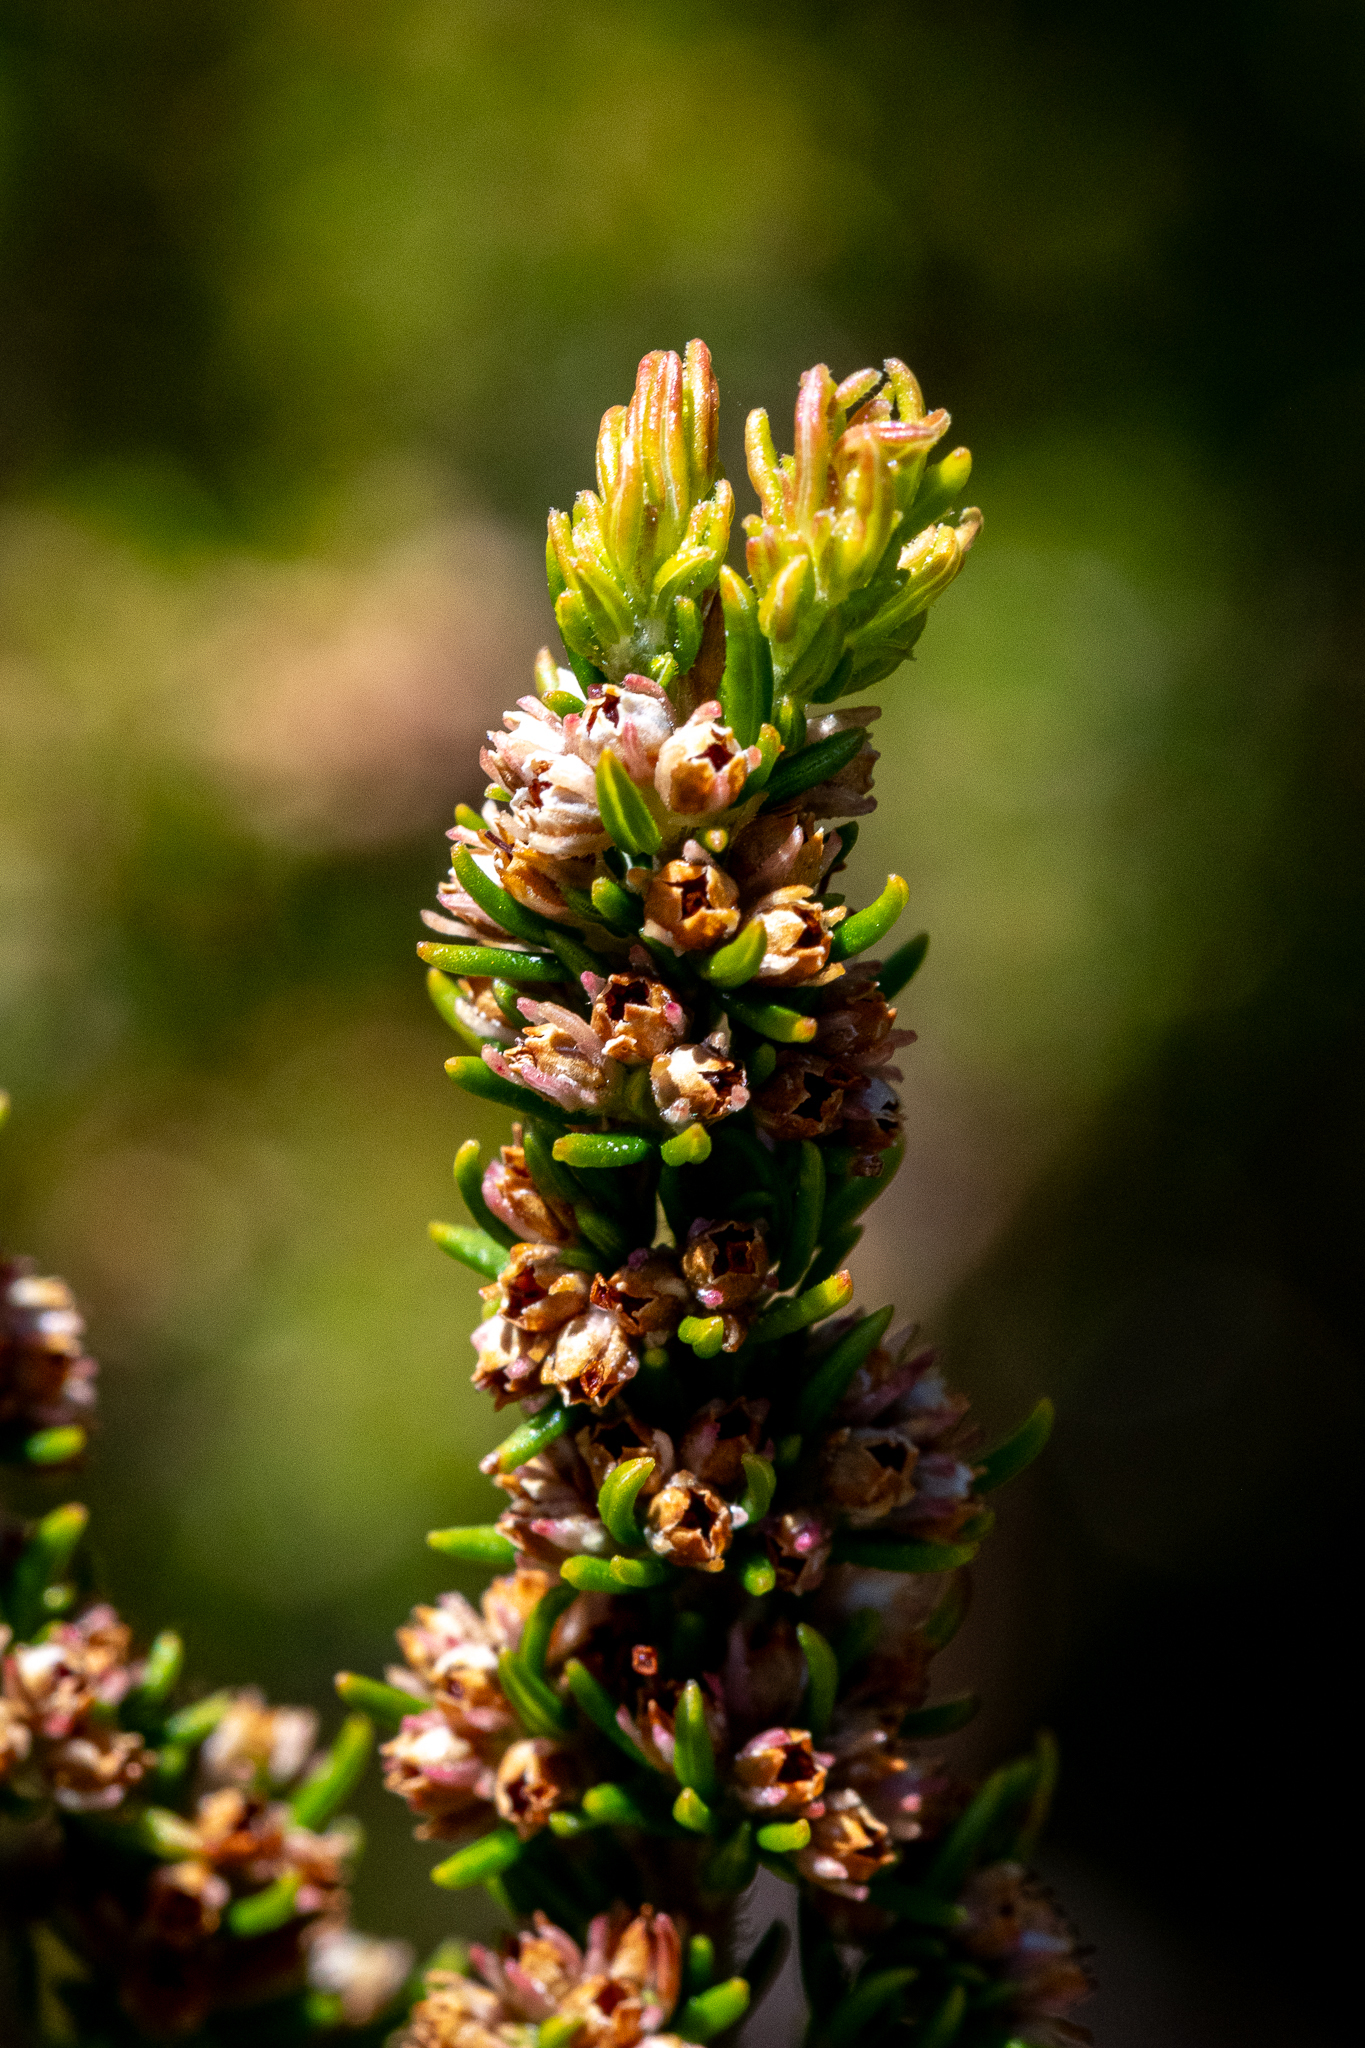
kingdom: Plantae
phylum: Tracheophyta
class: Magnoliopsida
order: Ericales
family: Ericaceae
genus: Erica
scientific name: Erica hispidula
